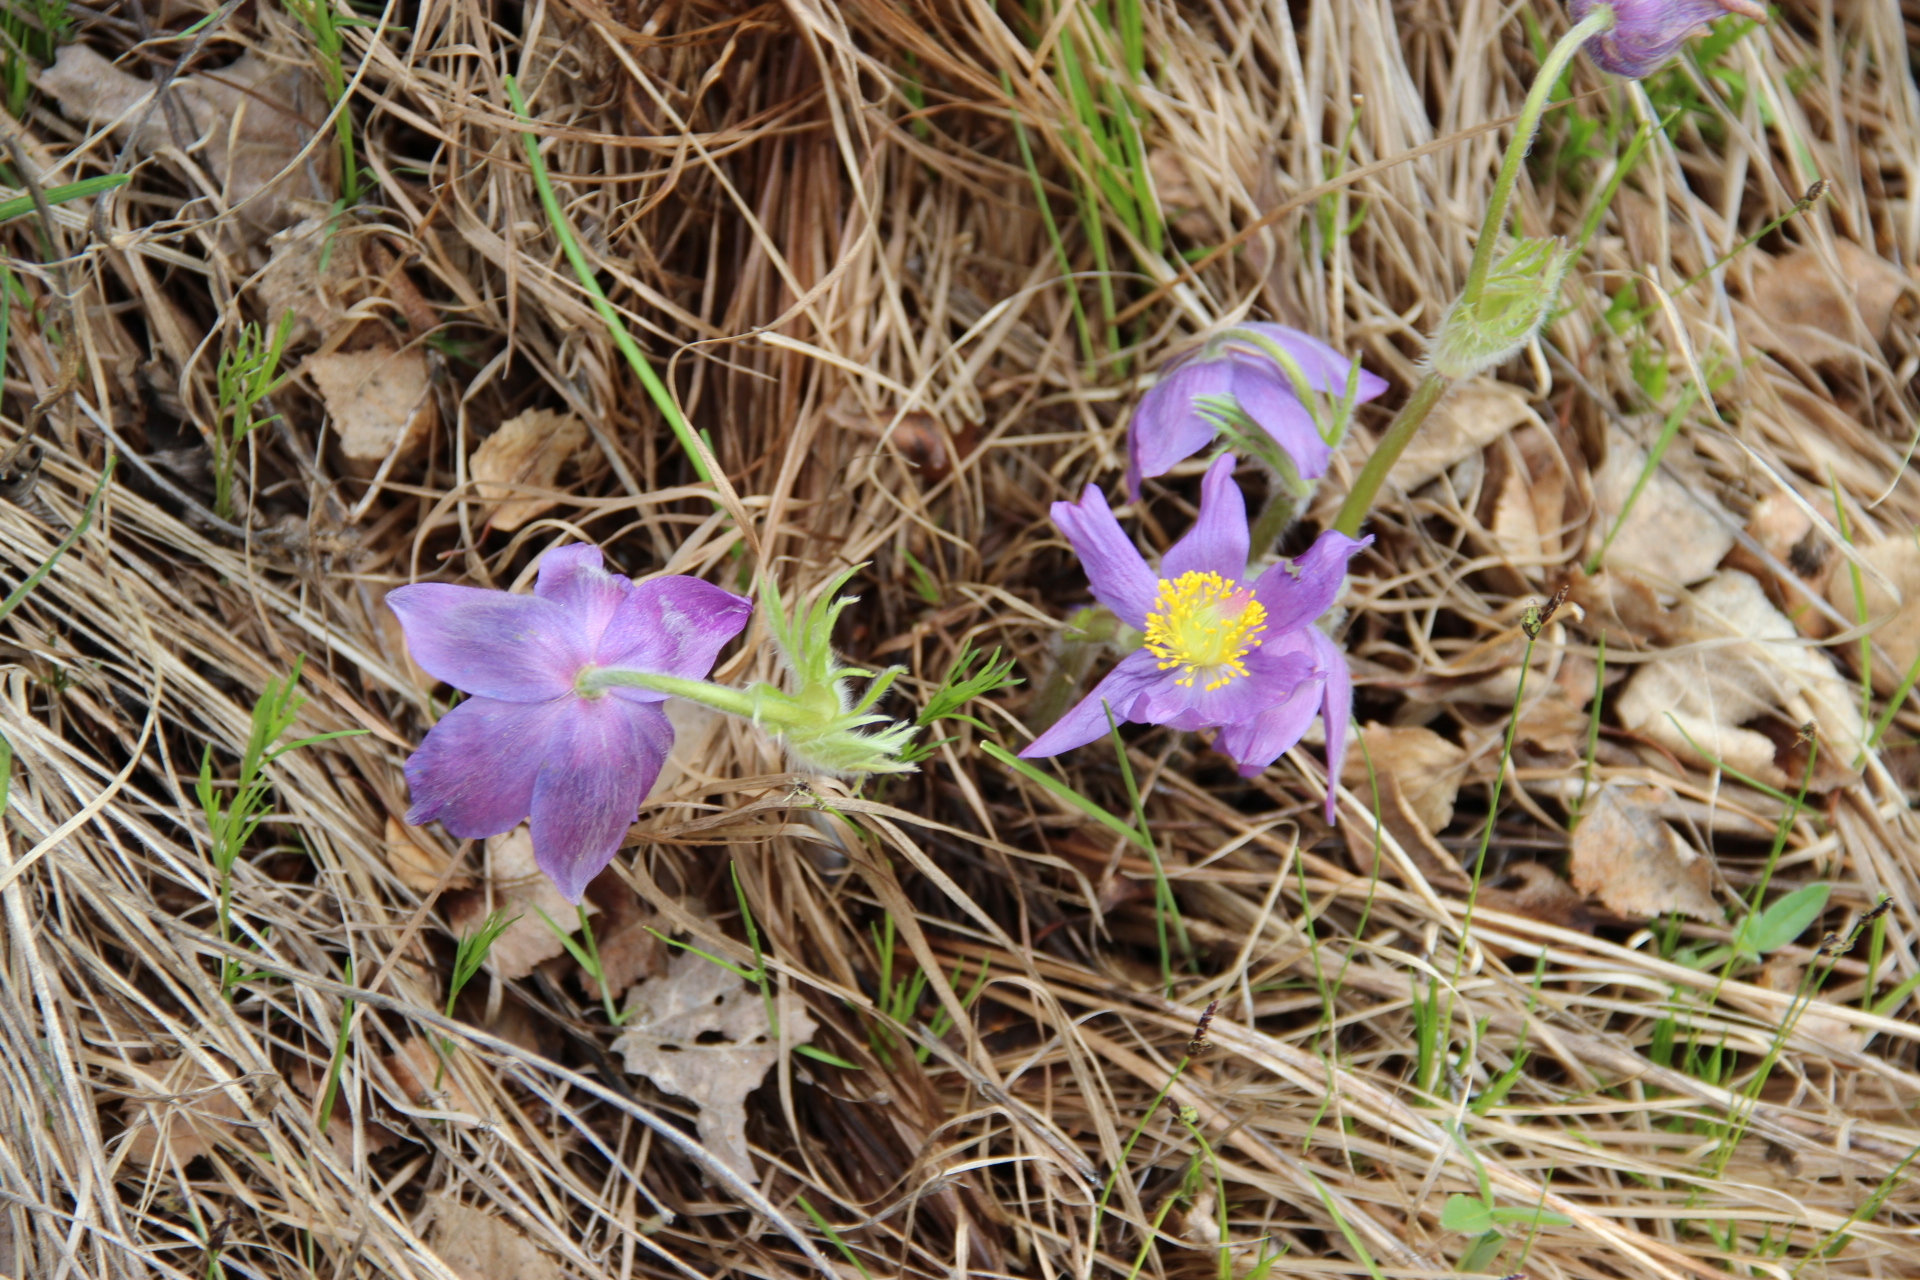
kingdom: Plantae
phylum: Tracheophyta
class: Magnoliopsida
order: Ranunculales
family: Ranunculaceae
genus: Pulsatilla
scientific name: Pulsatilla patens
